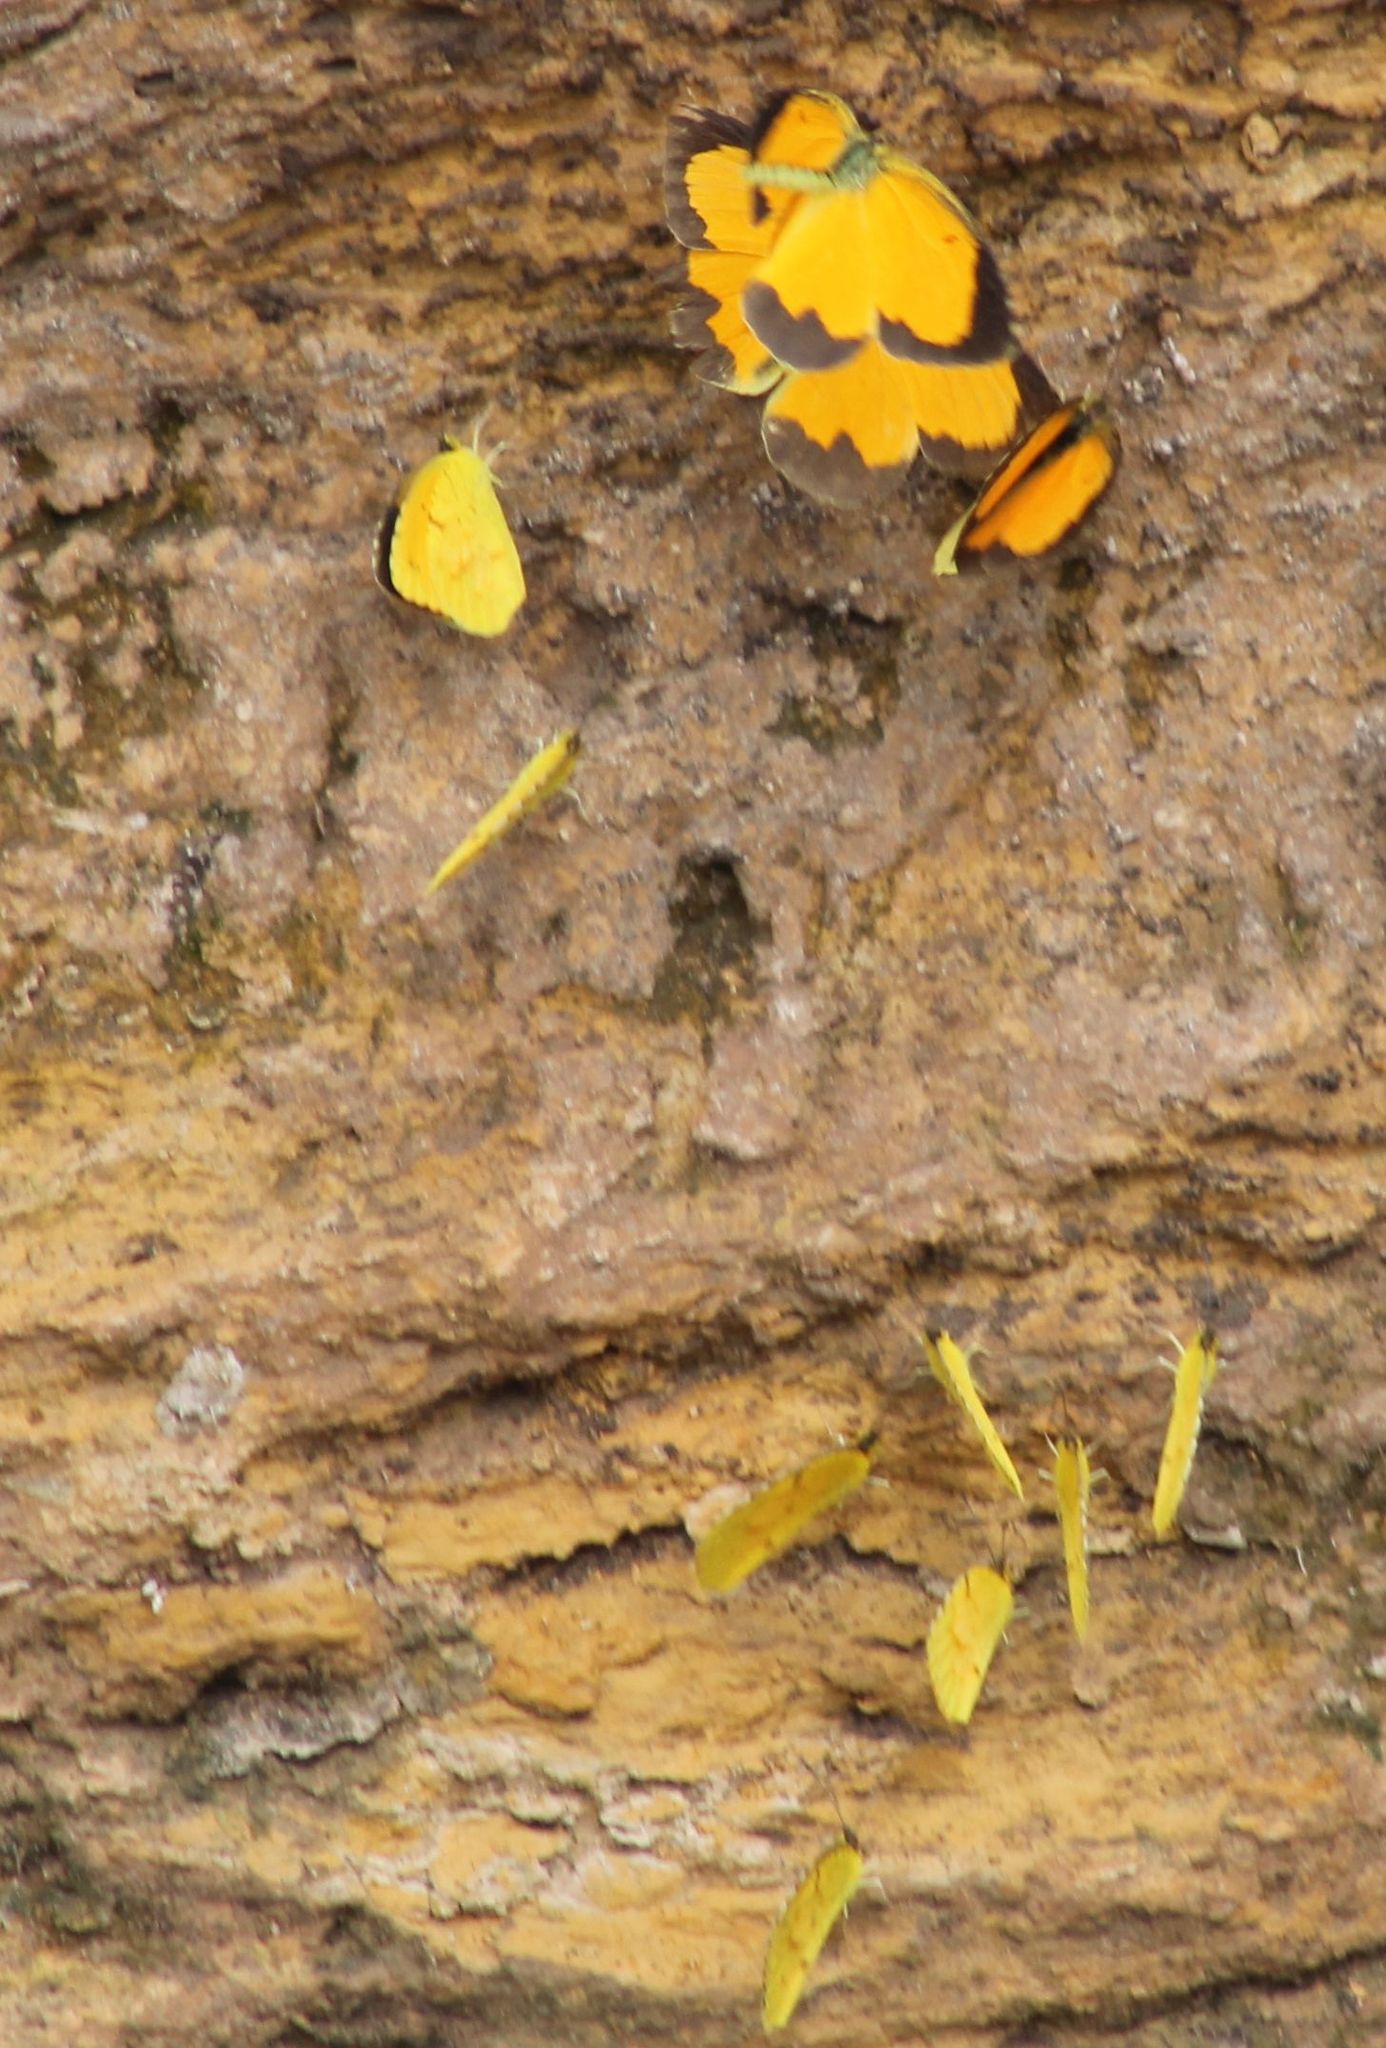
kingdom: Animalia
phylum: Arthropoda
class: Insecta
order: Lepidoptera
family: Pieridae
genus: Abaeis
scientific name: Abaeis nicippe
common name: Sleepy orange
